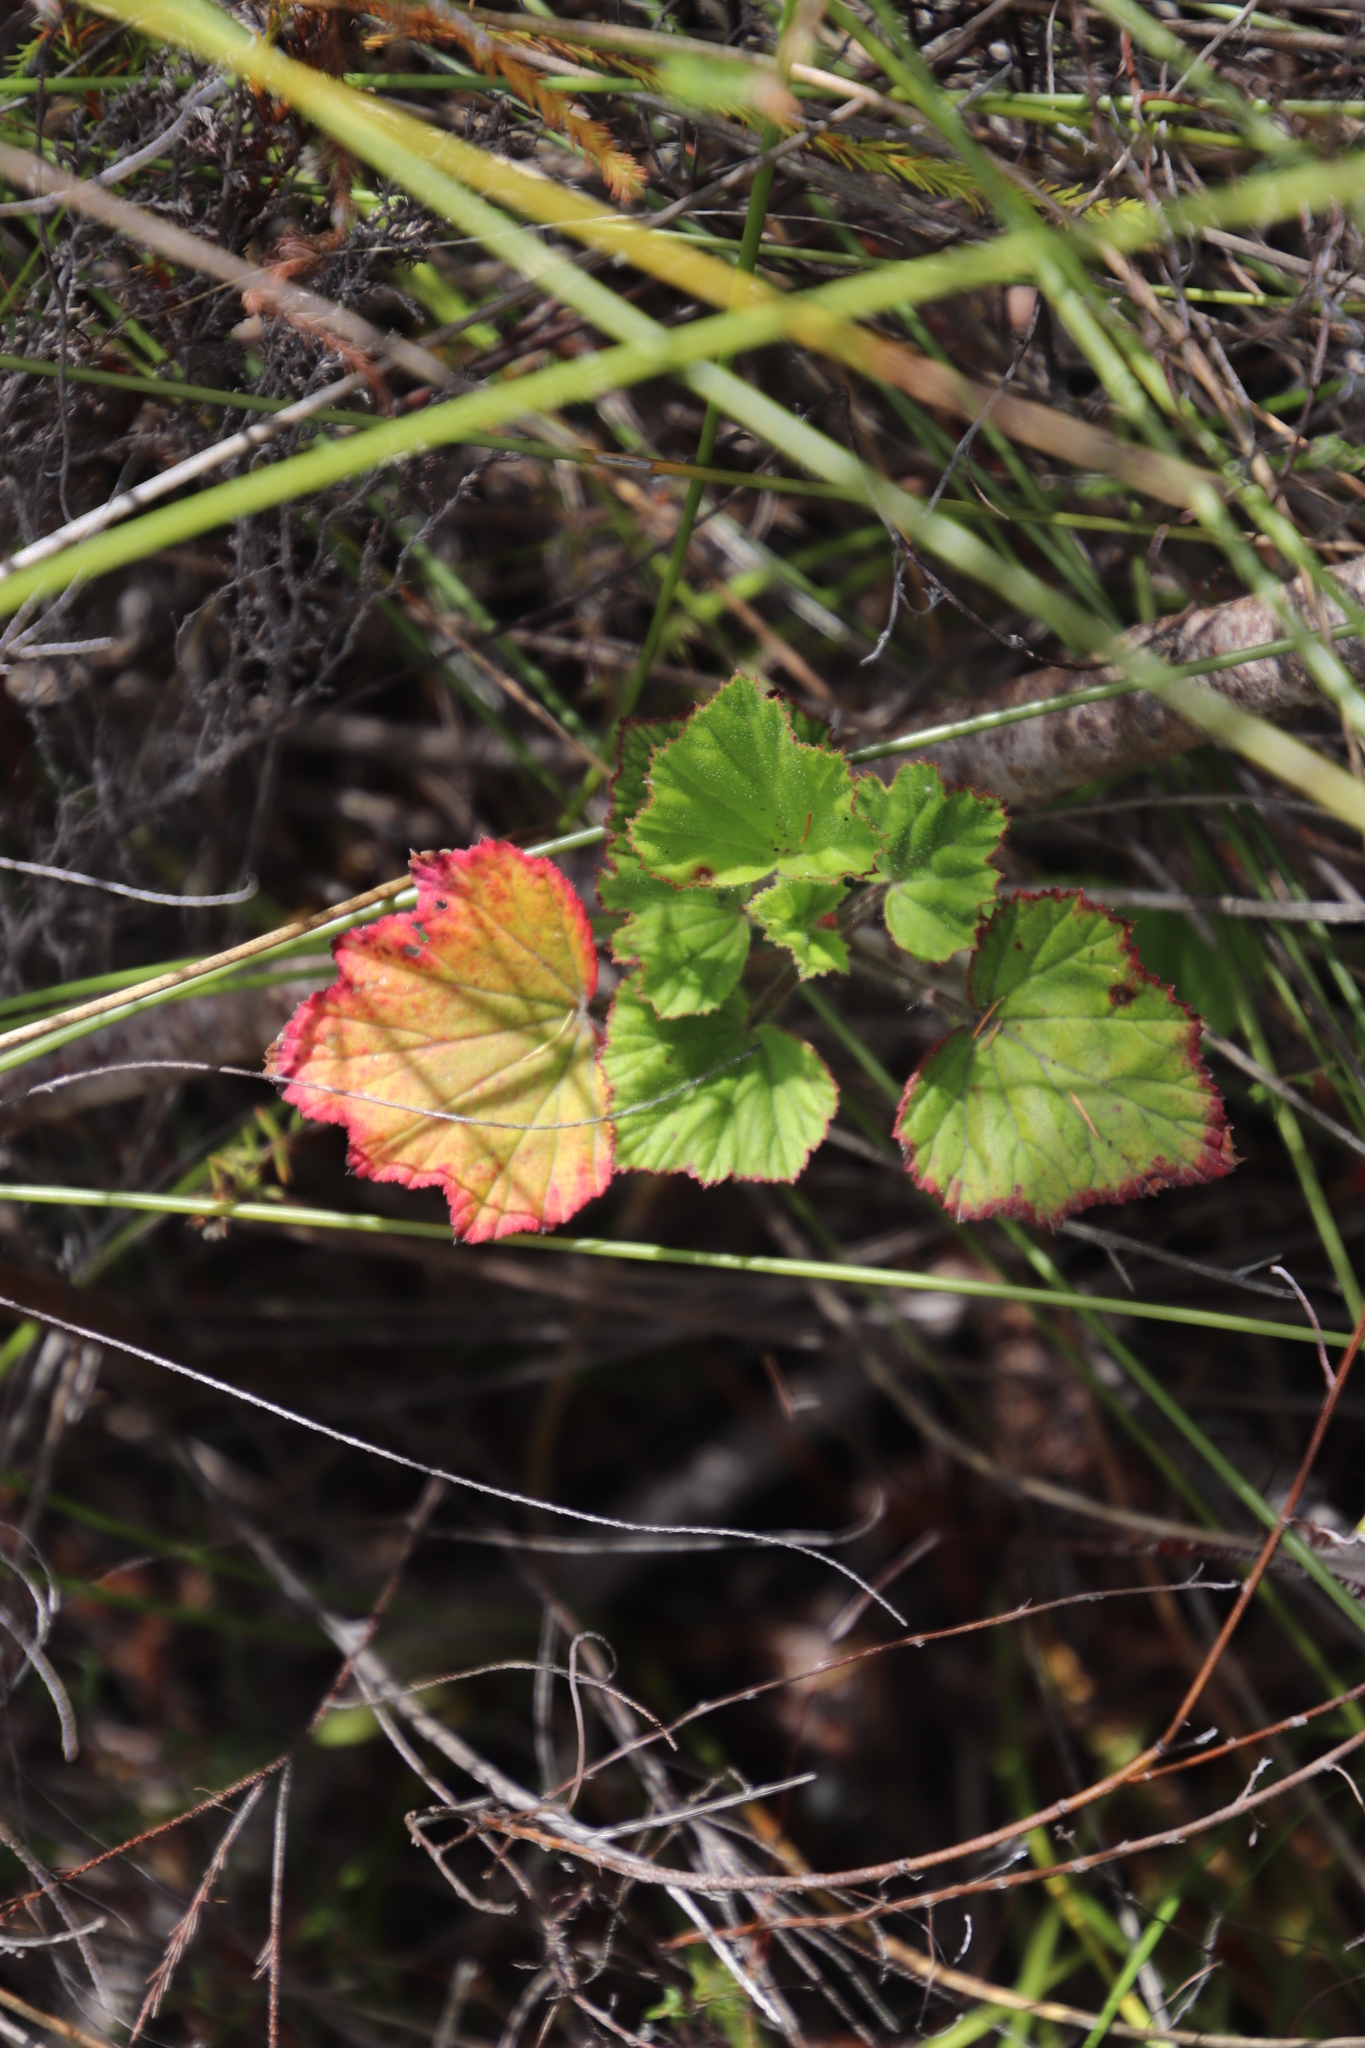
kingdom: Plantae
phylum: Tracheophyta
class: Magnoliopsida
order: Geraniales
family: Geraniaceae
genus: Pelargonium
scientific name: Pelargonium cucullatum
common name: Tree pelargonium
